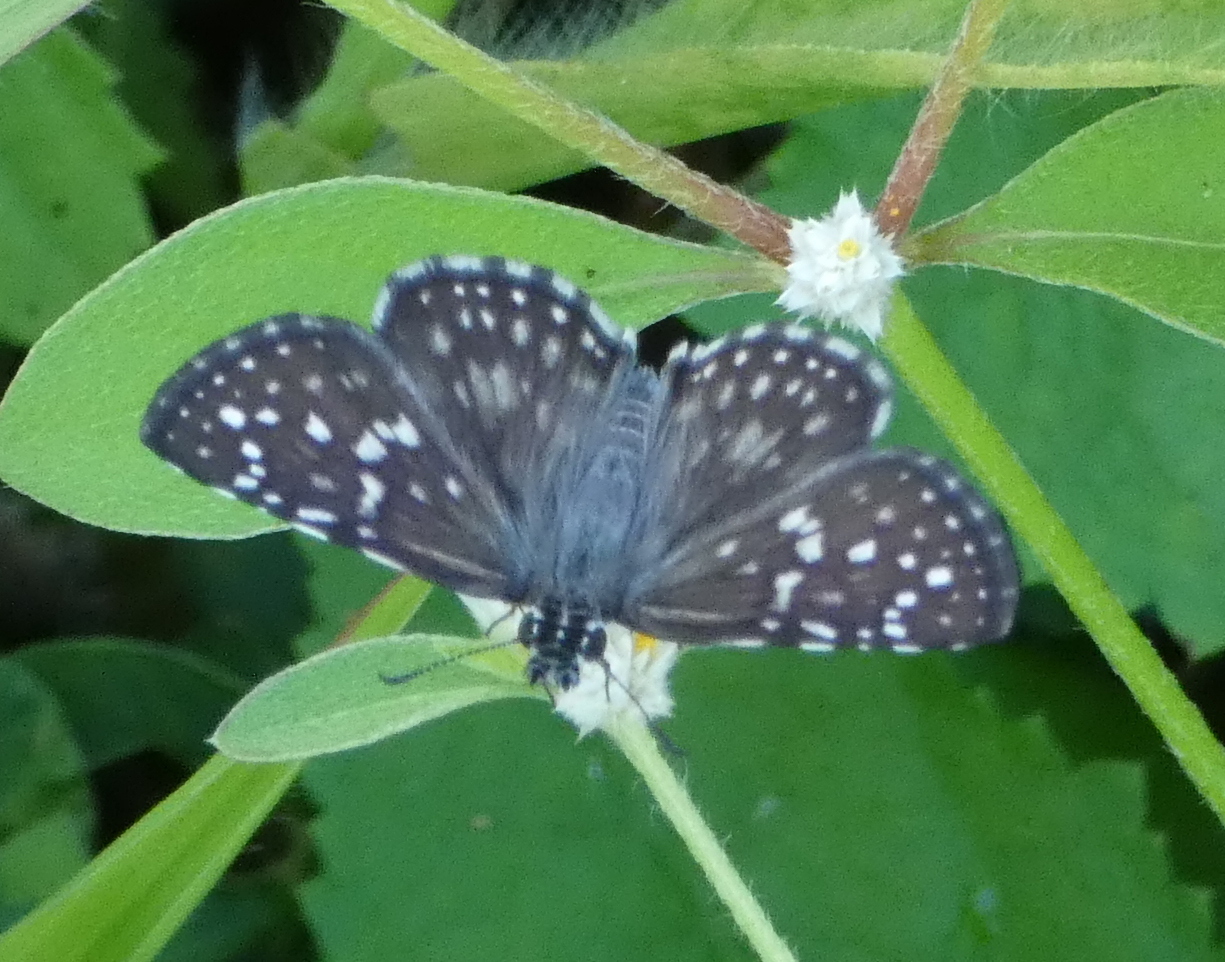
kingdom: Animalia
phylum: Arthropoda
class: Insecta
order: Lepidoptera
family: Hesperiidae
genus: Pyrgus
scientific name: Pyrgus oileus
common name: Tropical checkered-skipper
